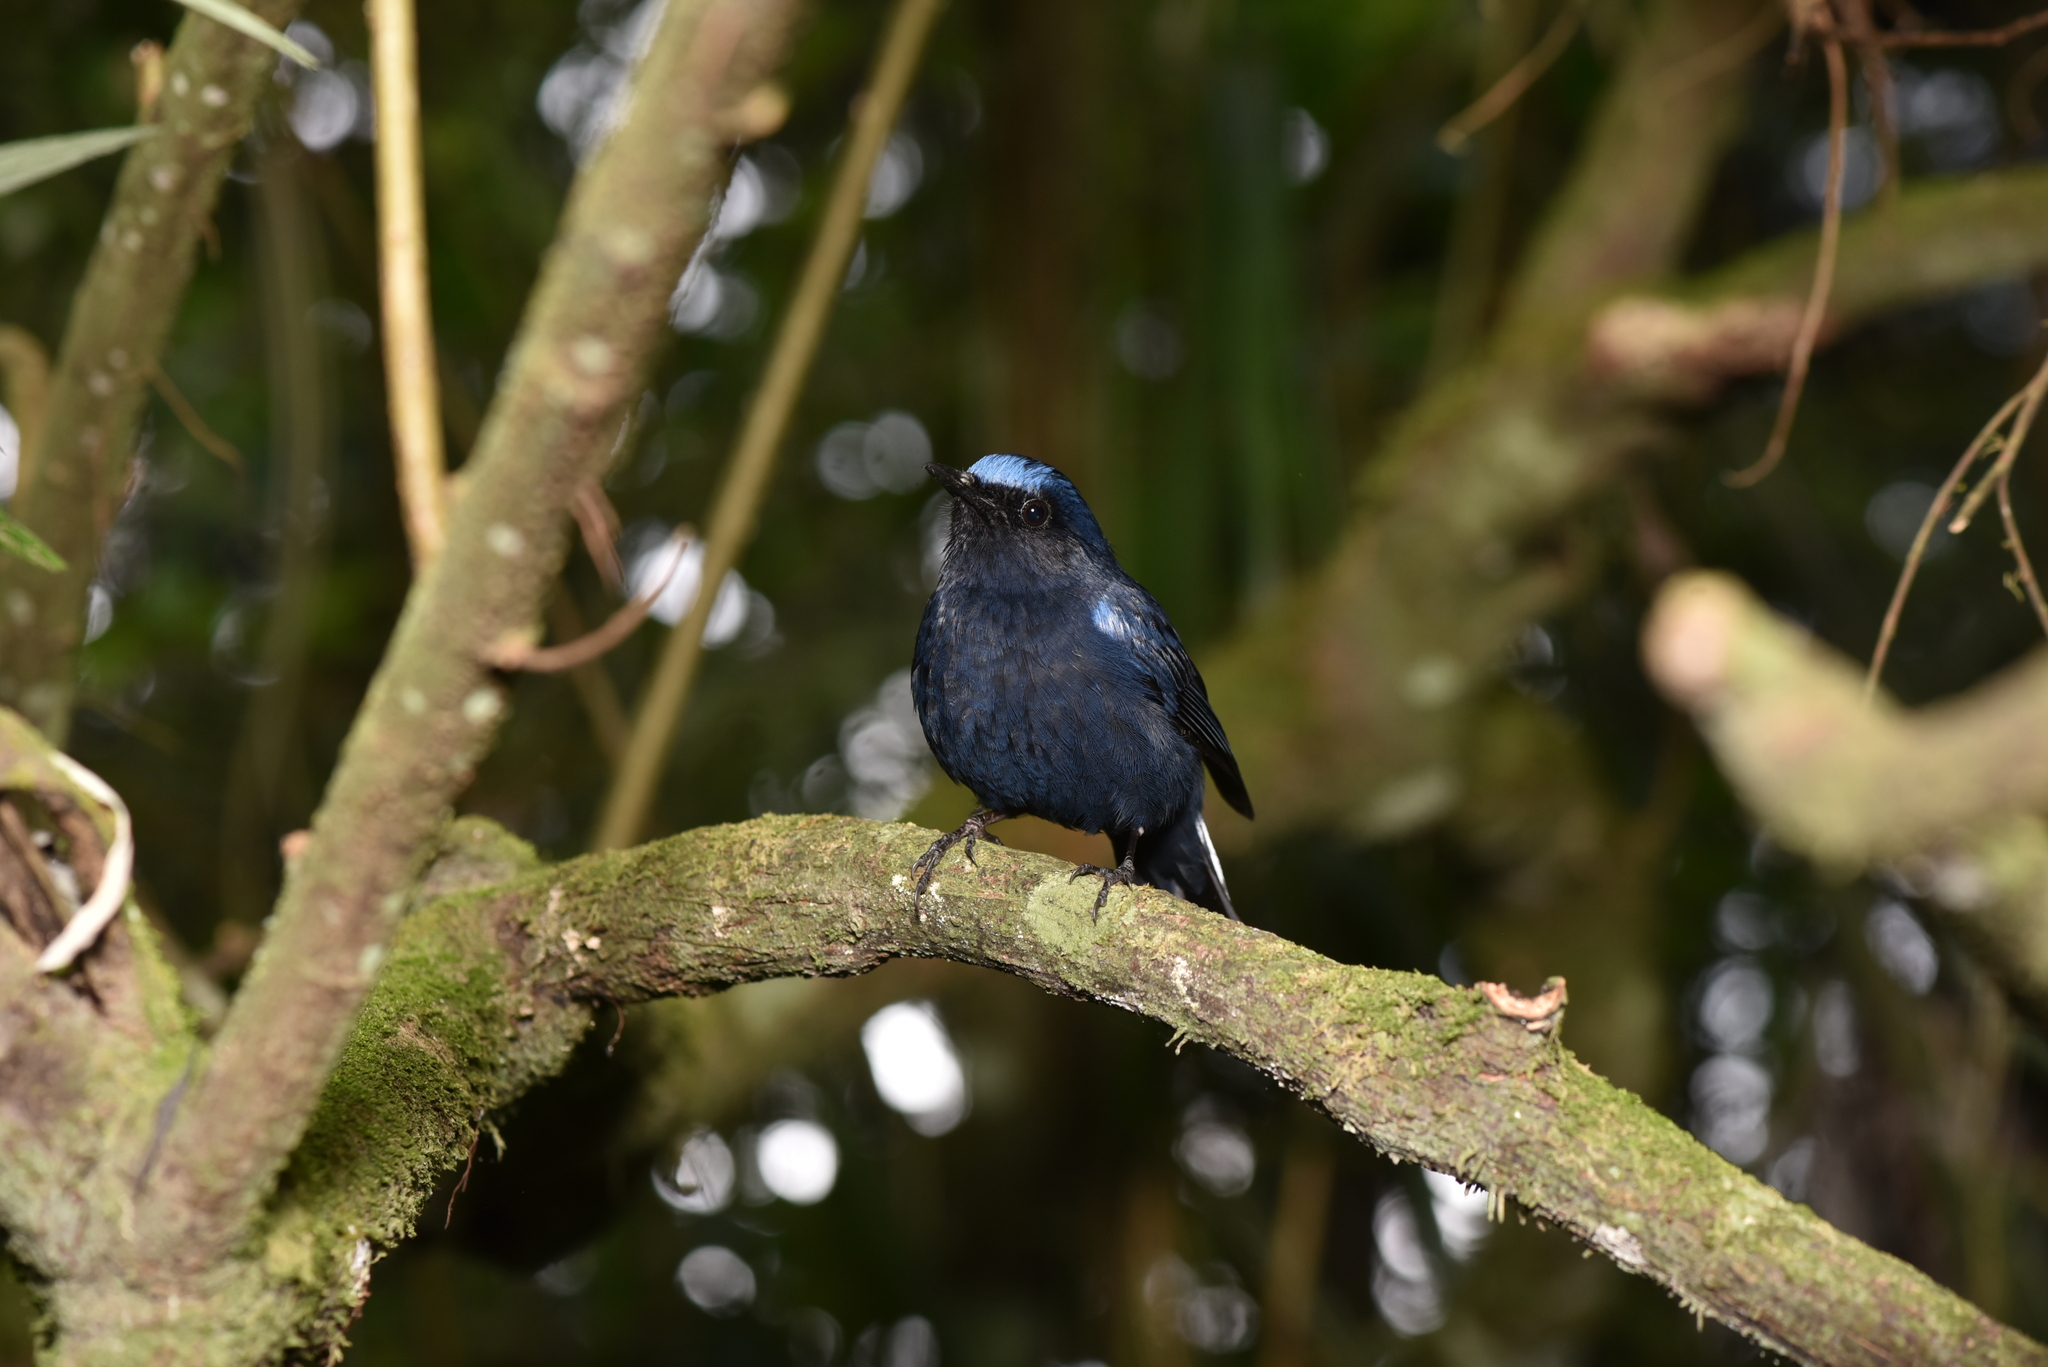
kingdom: Animalia
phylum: Chordata
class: Aves
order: Passeriformes
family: Muscicapidae
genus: Myiomela
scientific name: Myiomela leucura
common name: White-tailed robin
